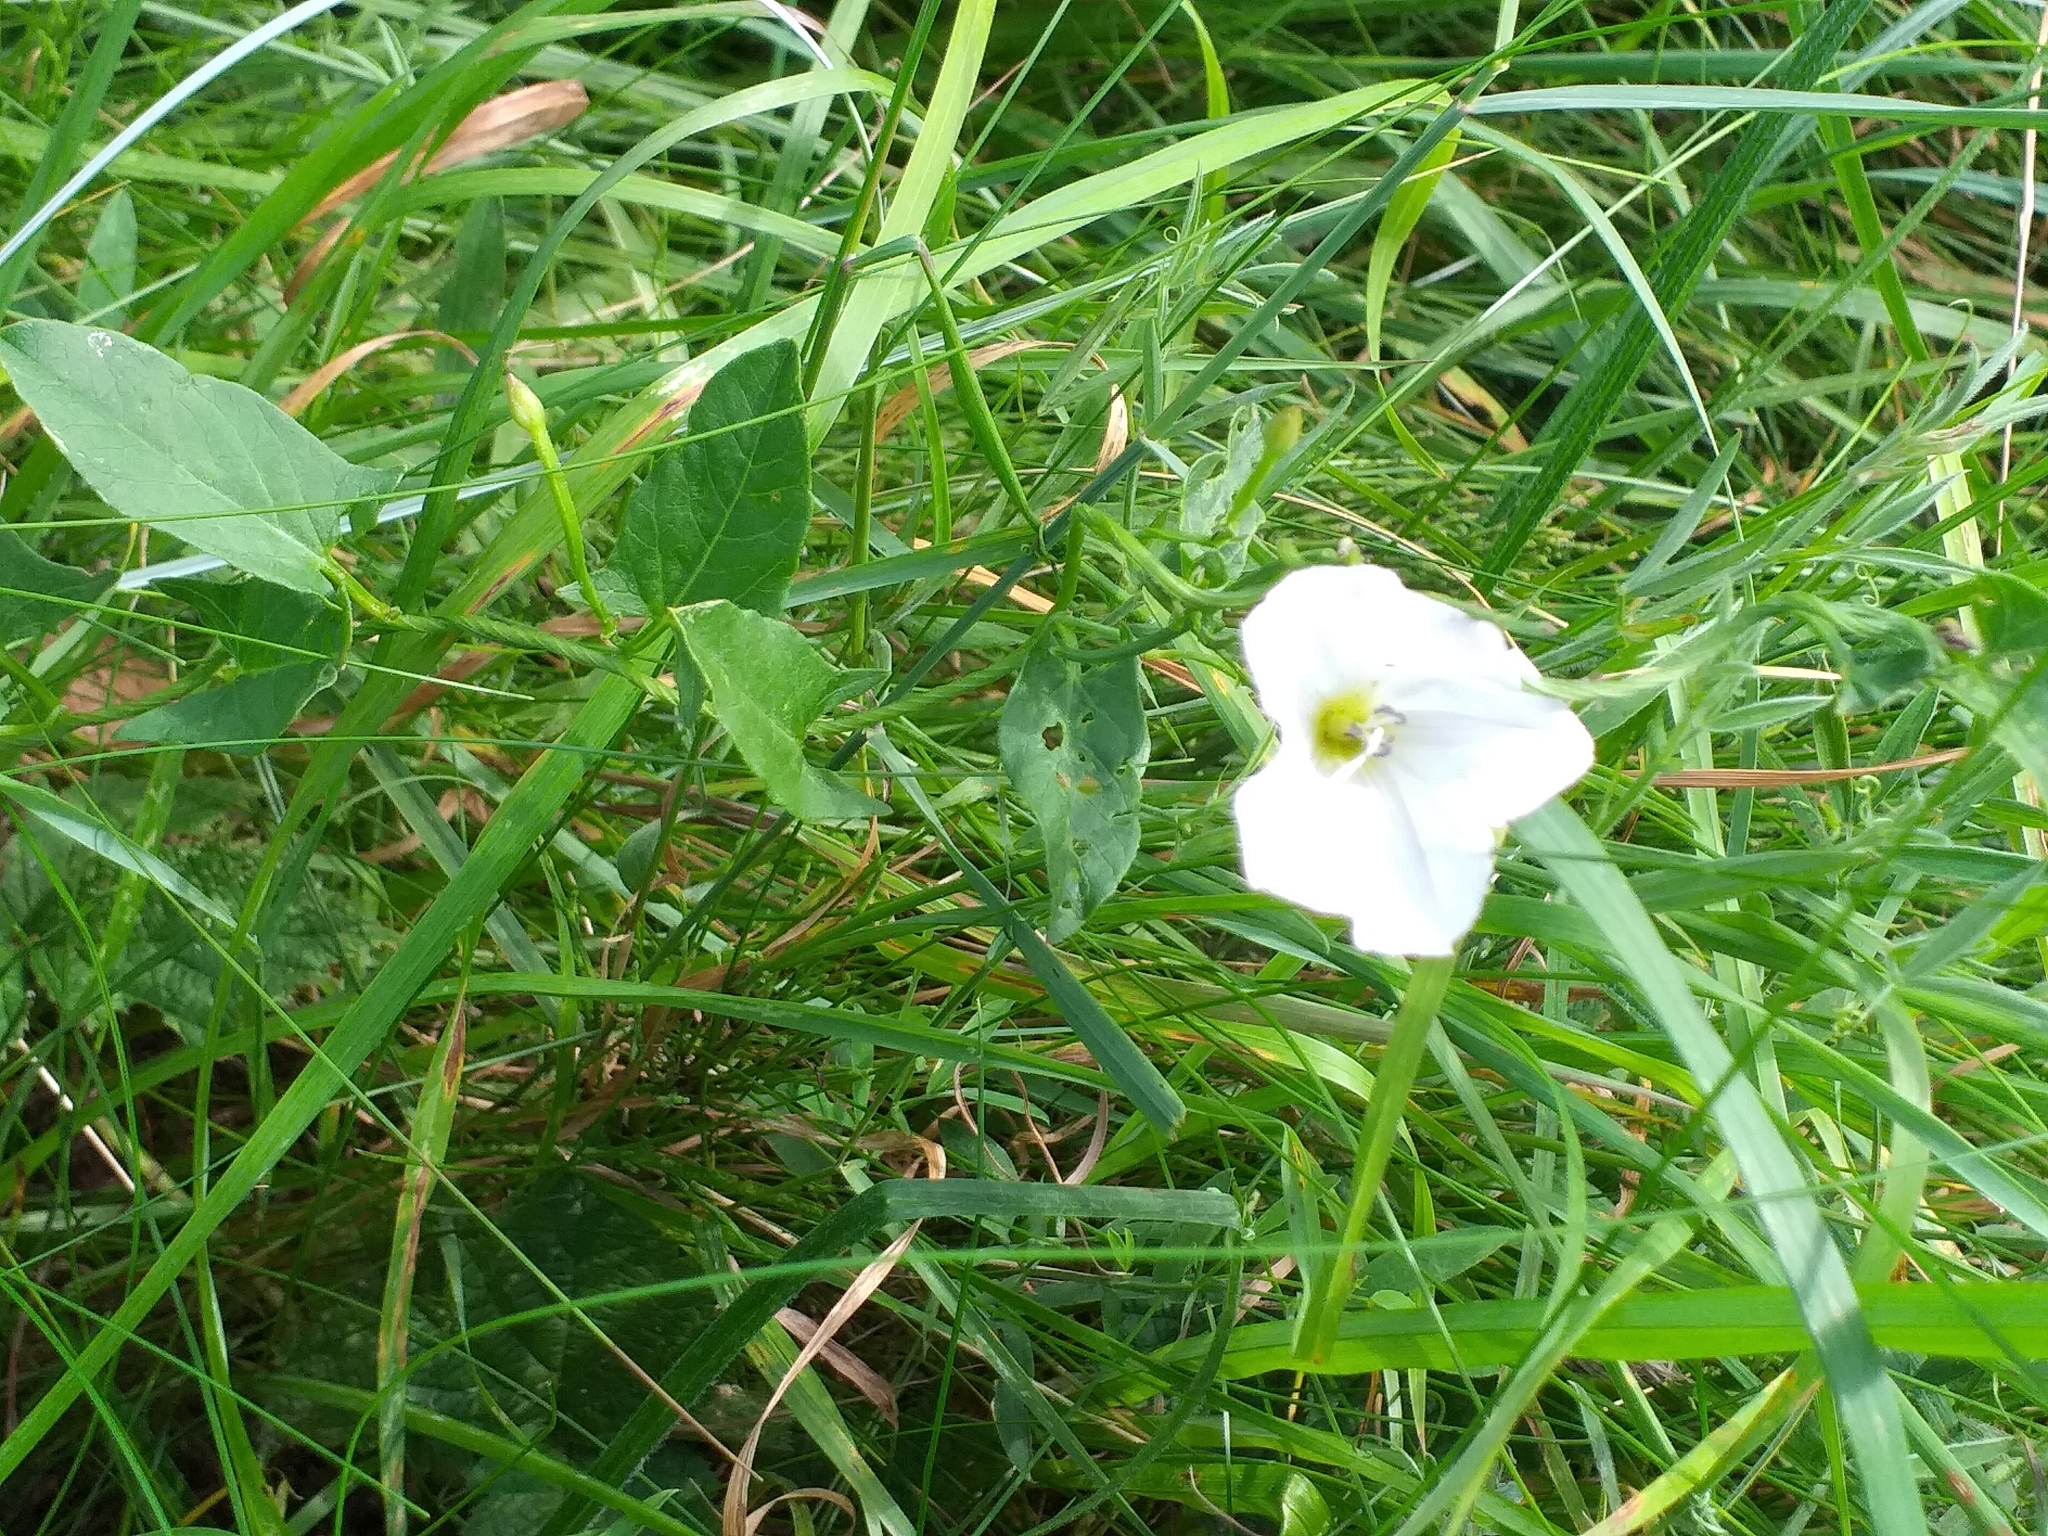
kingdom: Plantae
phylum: Tracheophyta
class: Magnoliopsida
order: Solanales
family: Convolvulaceae
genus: Convolvulus
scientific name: Convolvulus arvensis
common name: Field bindweed
